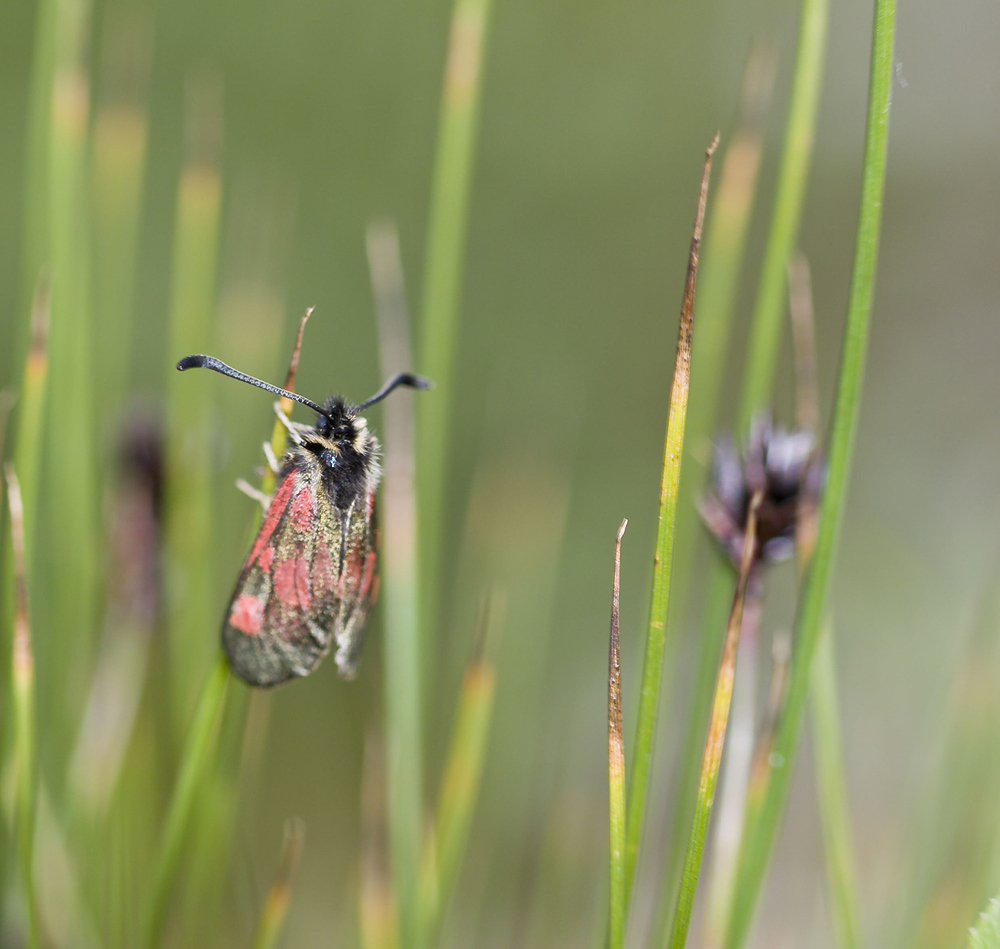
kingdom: Animalia
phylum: Arthropoda
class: Insecta
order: Lepidoptera
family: Zygaenidae
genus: Zygaena
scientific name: Zygaena exulans
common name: Scotch burnet
